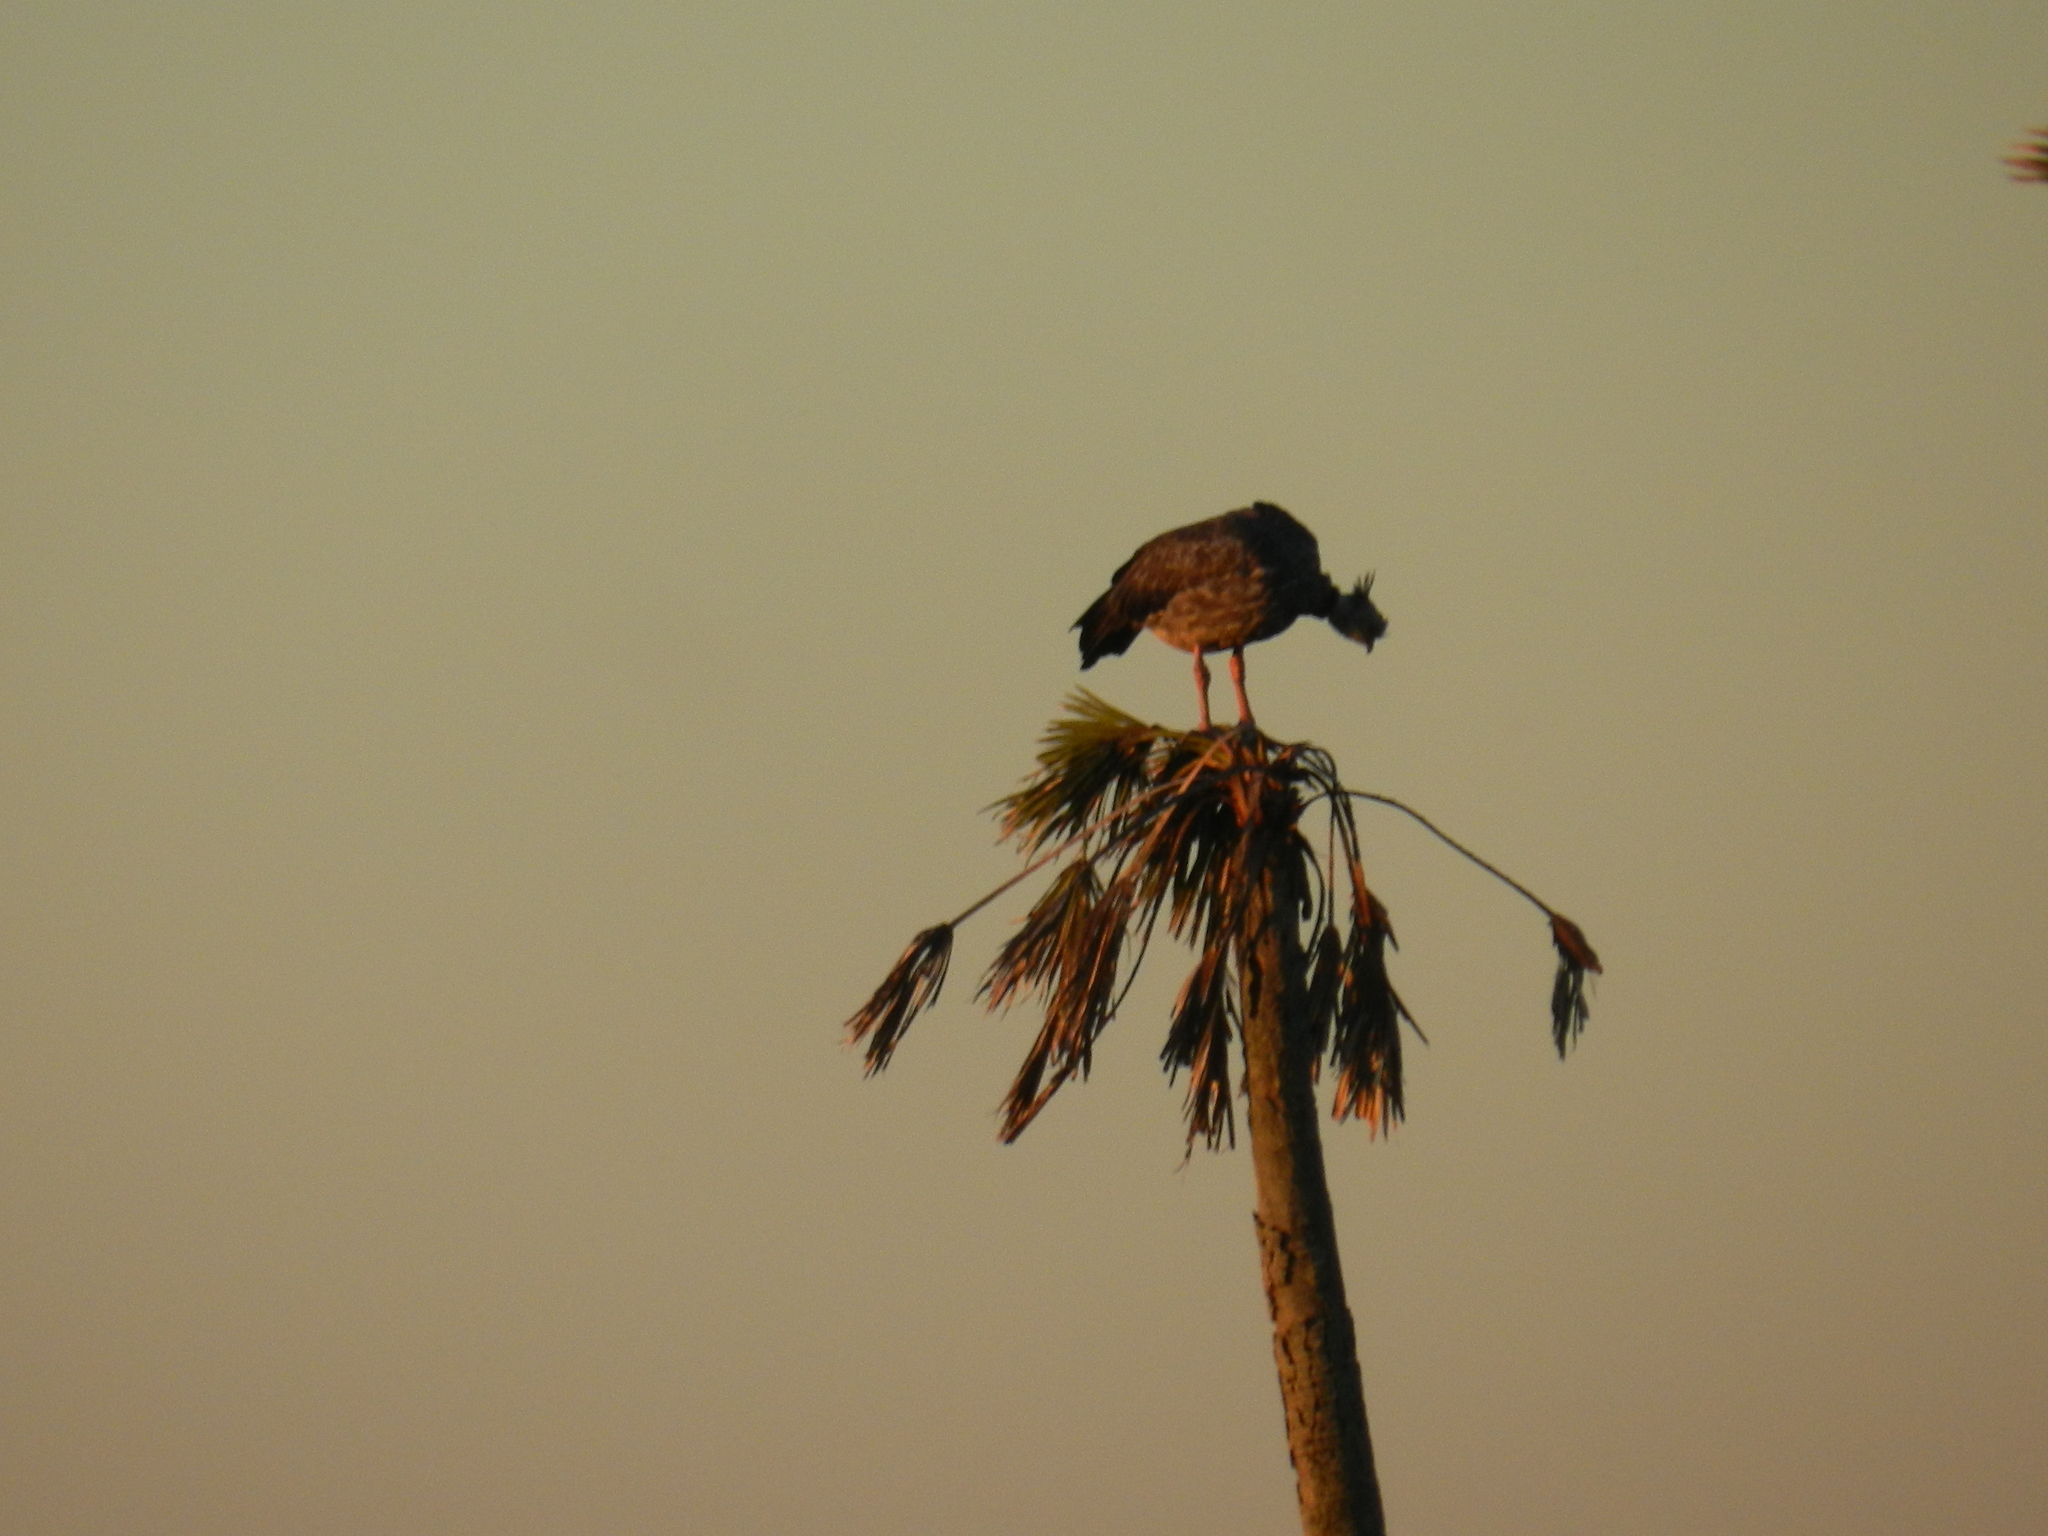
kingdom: Animalia
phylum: Chordata
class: Aves
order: Anseriformes
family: Anhimidae
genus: Chauna
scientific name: Chauna torquata
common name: Southern screamer
